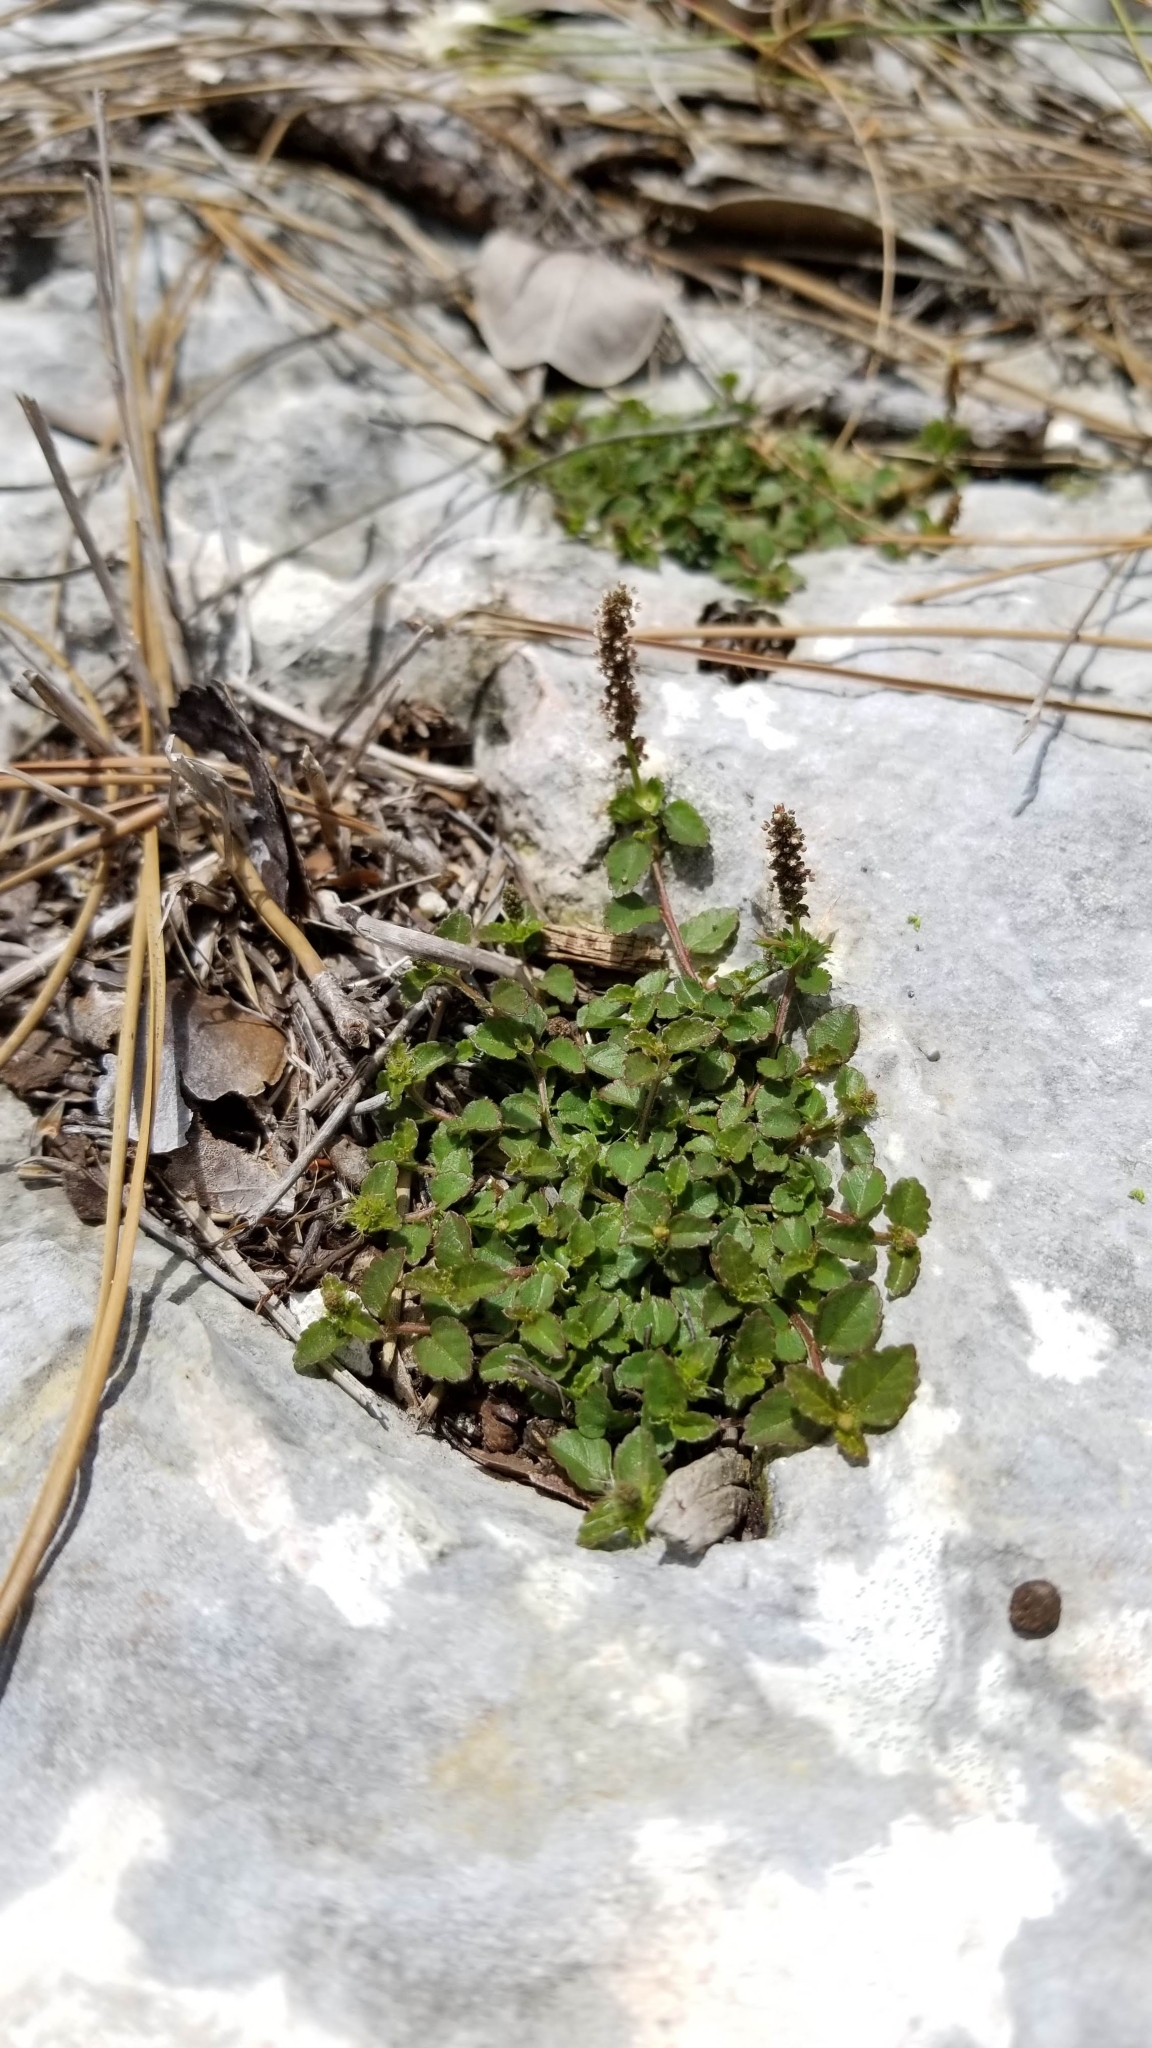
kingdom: Plantae
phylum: Tracheophyta
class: Magnoliopsida
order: Malpighiales
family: Euphorbiaceae
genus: Acalypha
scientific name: Acalypha chamaedrifolia
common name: Bastard copperleaf
